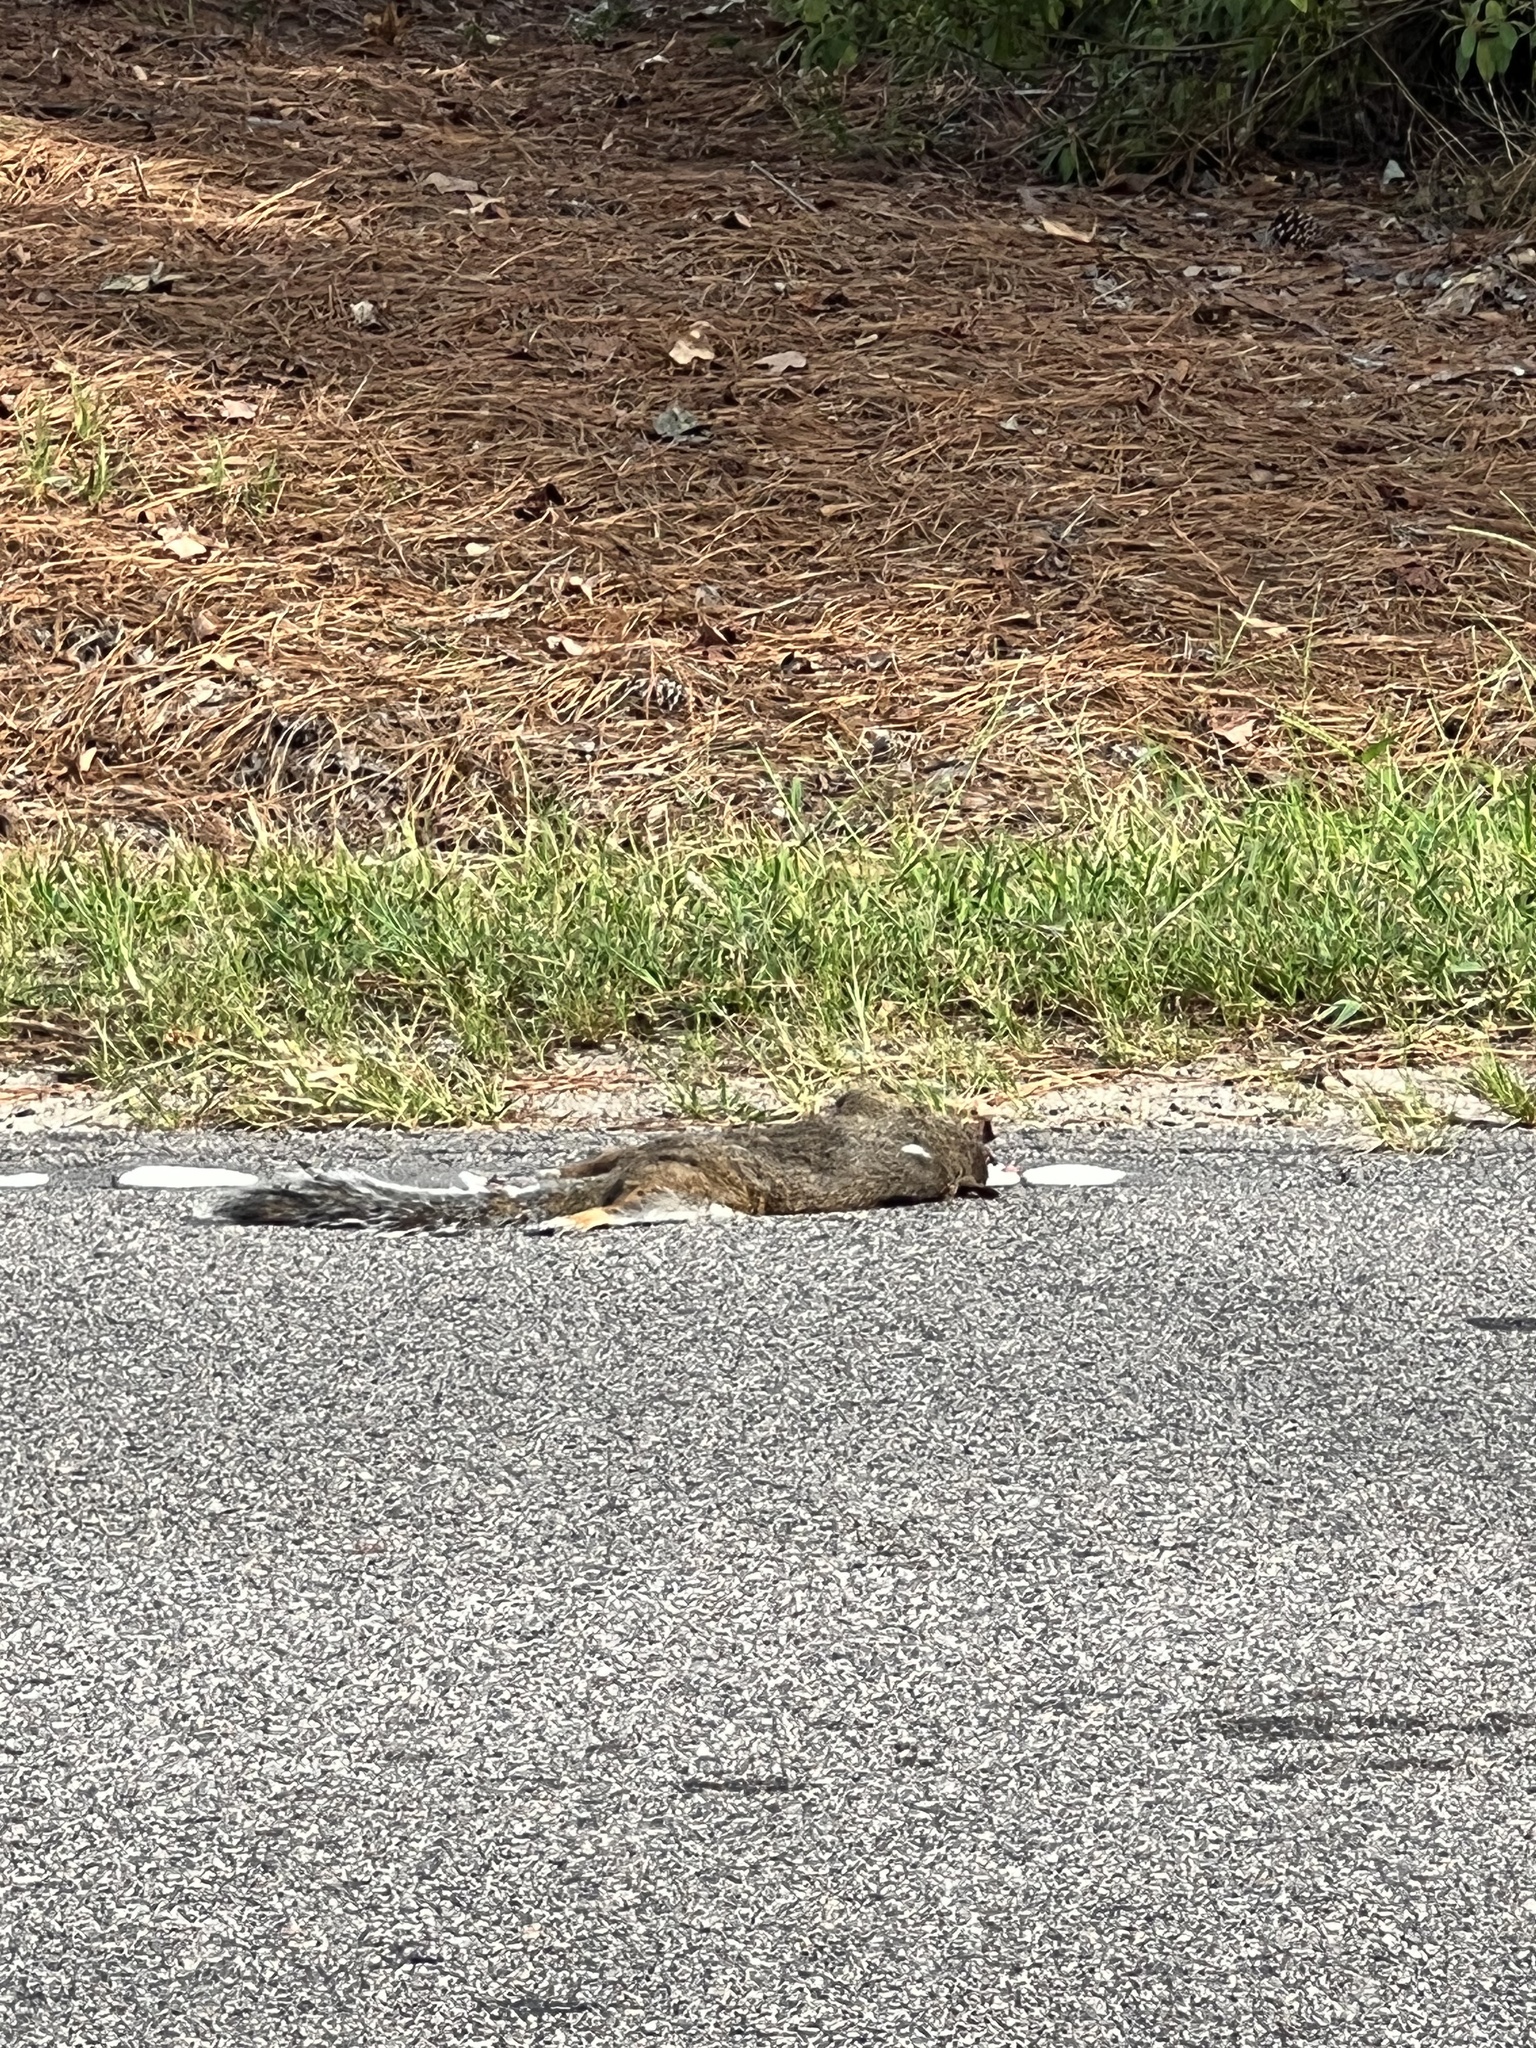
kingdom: Animalia
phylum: Chordata
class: Mammalia
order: Rodentia
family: Sciuridae
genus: Sciurus
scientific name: Sciurus carolinensis
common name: Eastern gray squirrel
